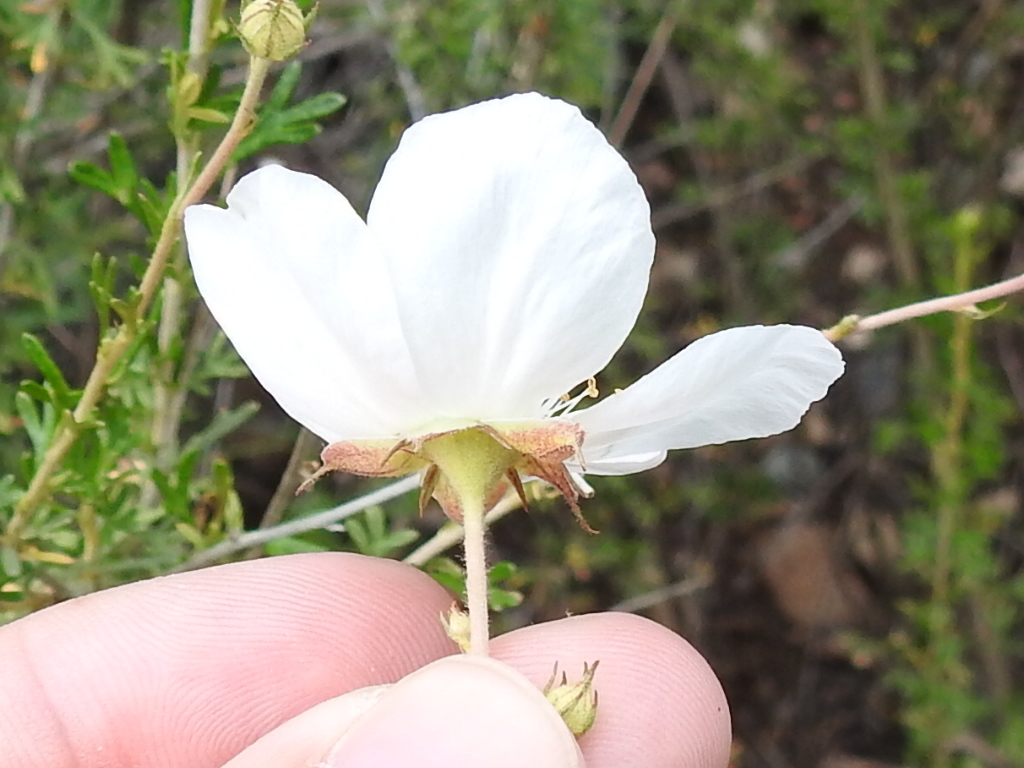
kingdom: Plantae
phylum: Tracheophyta
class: Magnoliopsida
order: Rosales
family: Rosaceae
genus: Fallugia
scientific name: Fallugia paradoxa
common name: Apache-plume
